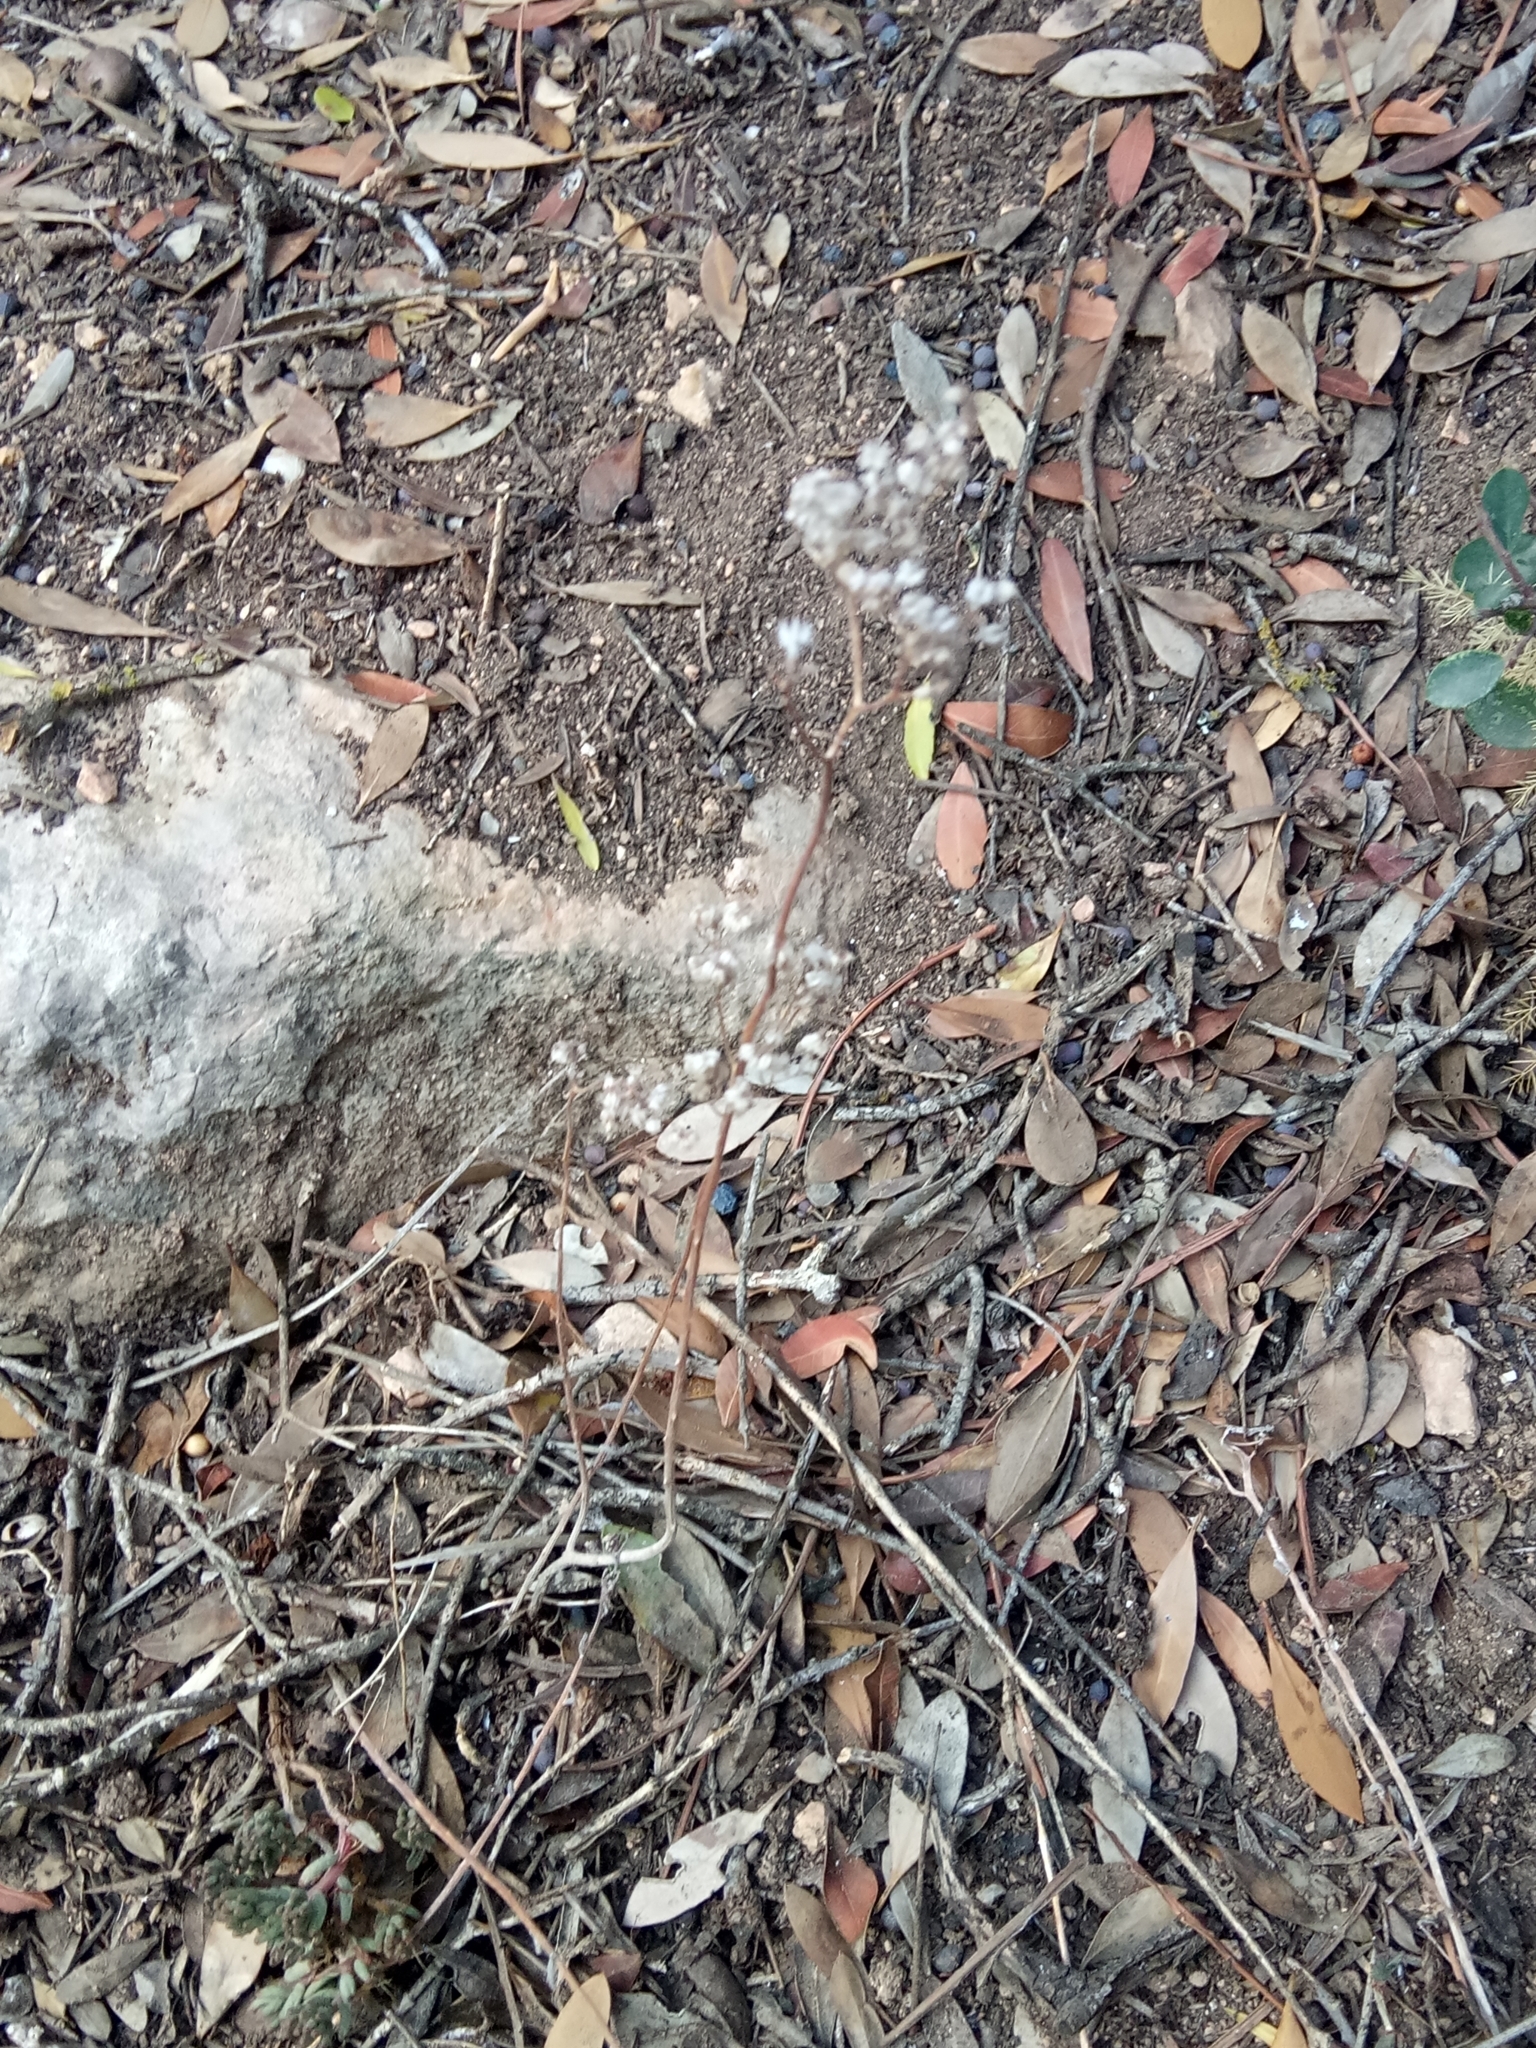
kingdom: Plantae
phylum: Tracheophyta
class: Magnoliopsida
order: Saxifragales
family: Crassulaceae
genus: Sedum
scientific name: Sedum album
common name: White stonecrop
